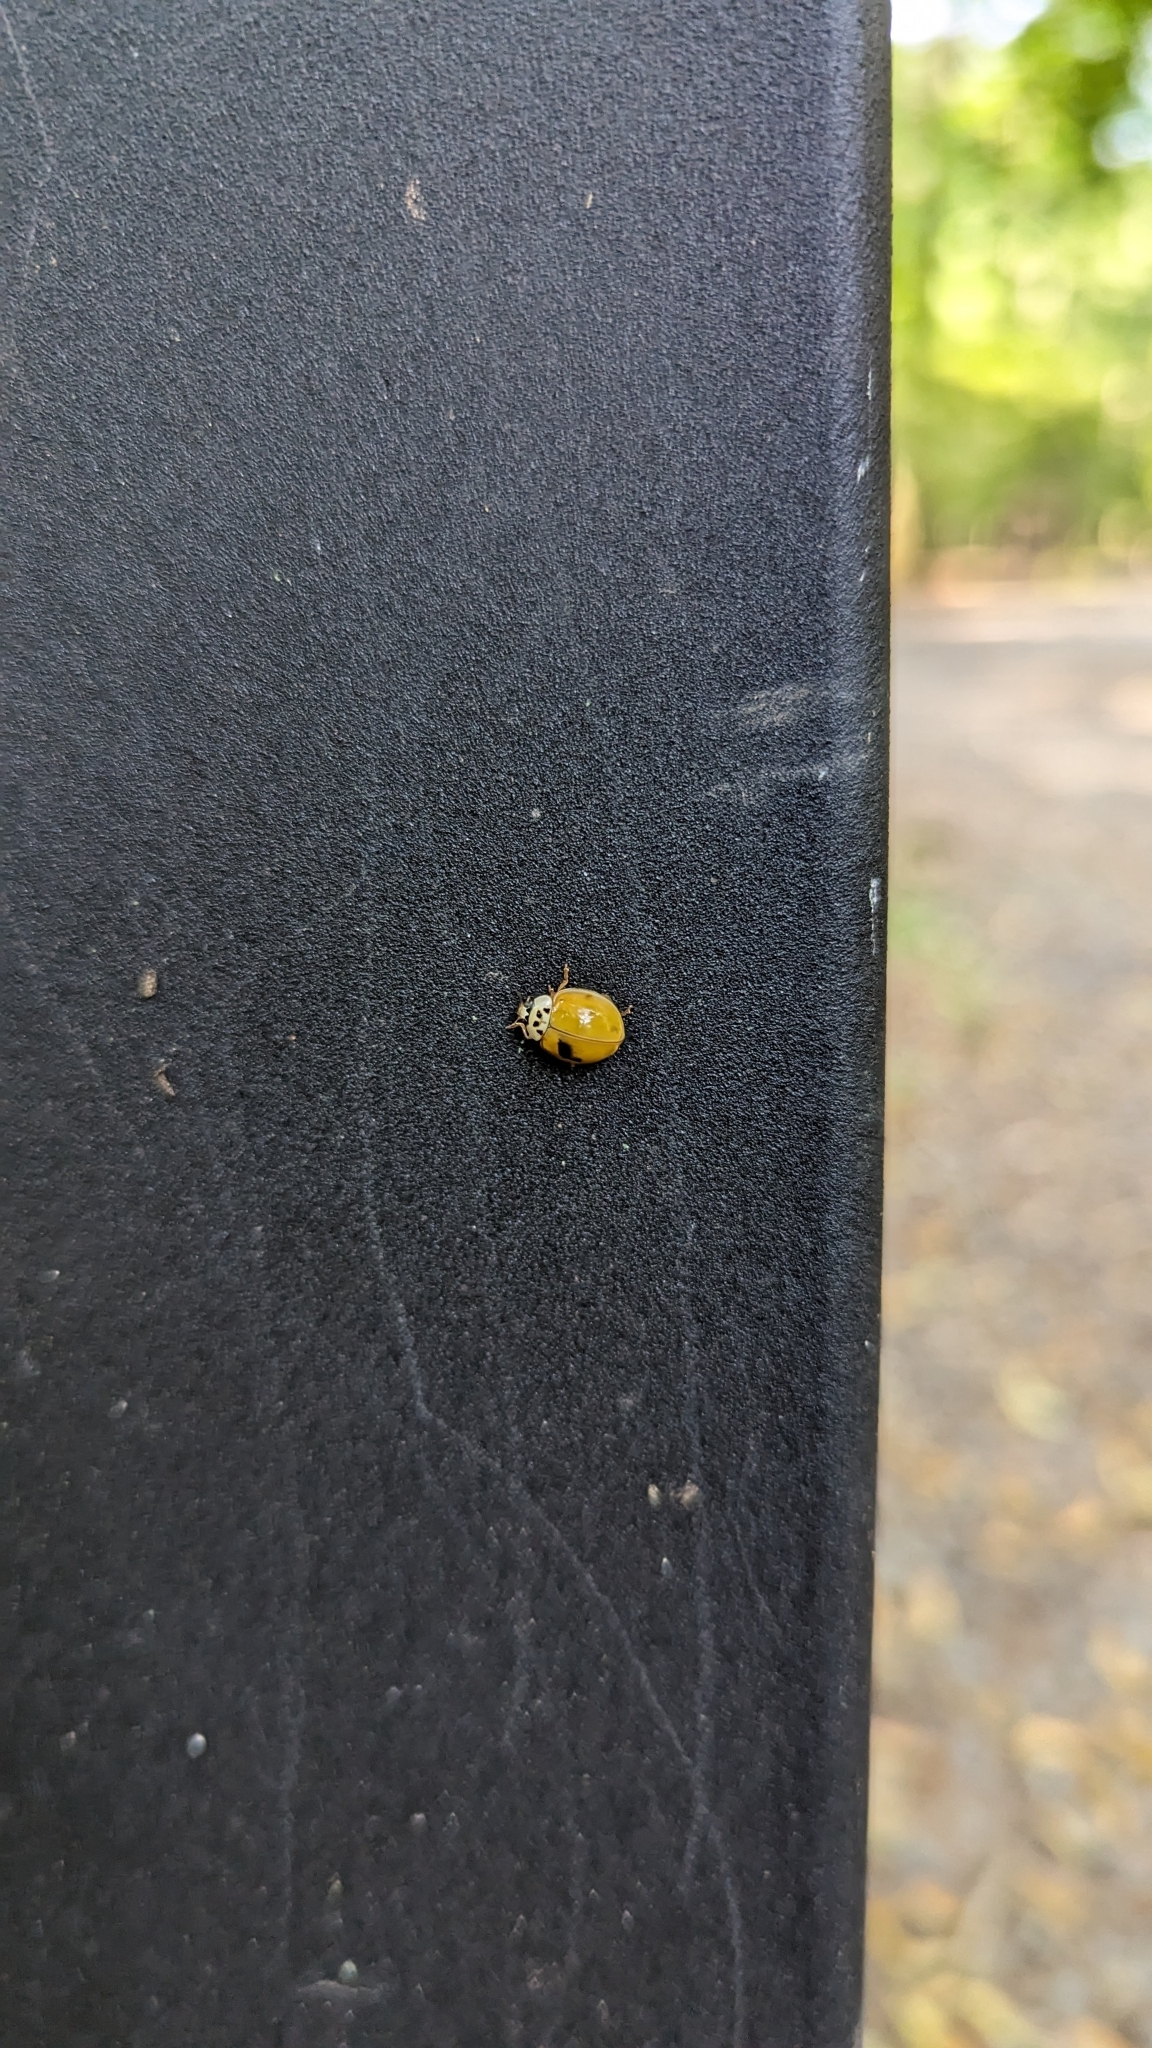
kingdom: Animalia
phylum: Arthropoda
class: Insecta
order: Coleoptera
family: Coccinellidae
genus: Harmonia
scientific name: Harmonia axyridis
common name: Harlequin ladybird
